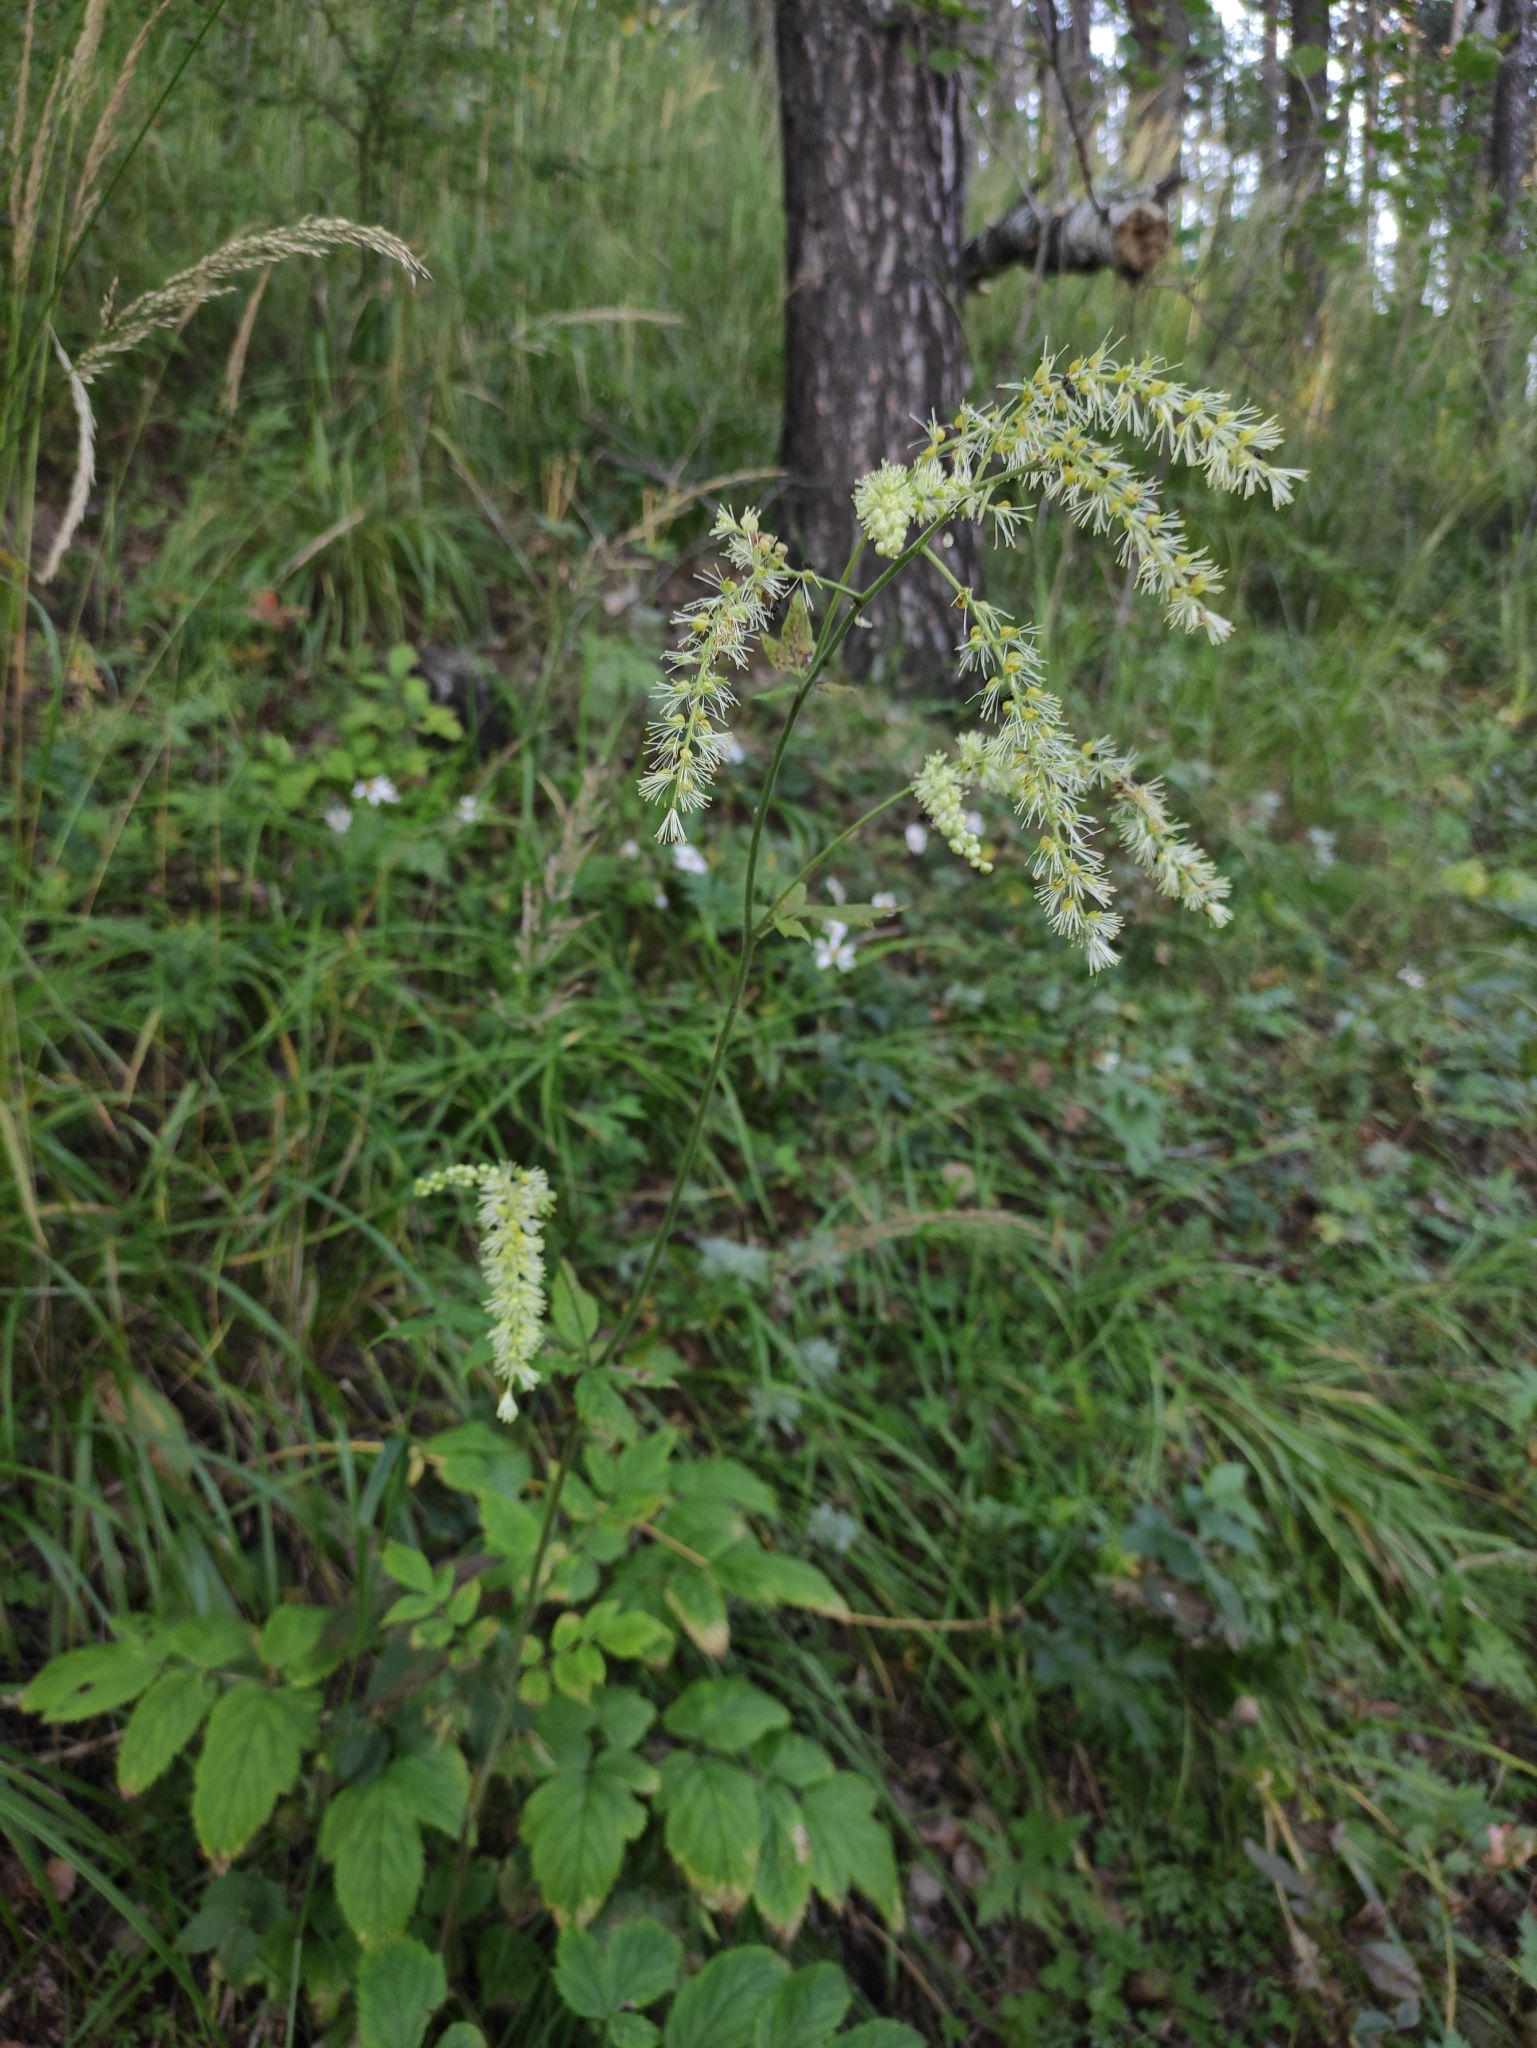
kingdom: Plantae
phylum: Tracheophyta
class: Magnoliopsida
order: Ranunculales
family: Ranunculaceae
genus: Actaea
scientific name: Actaea cimicifuga
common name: Chinese cimicifuga
